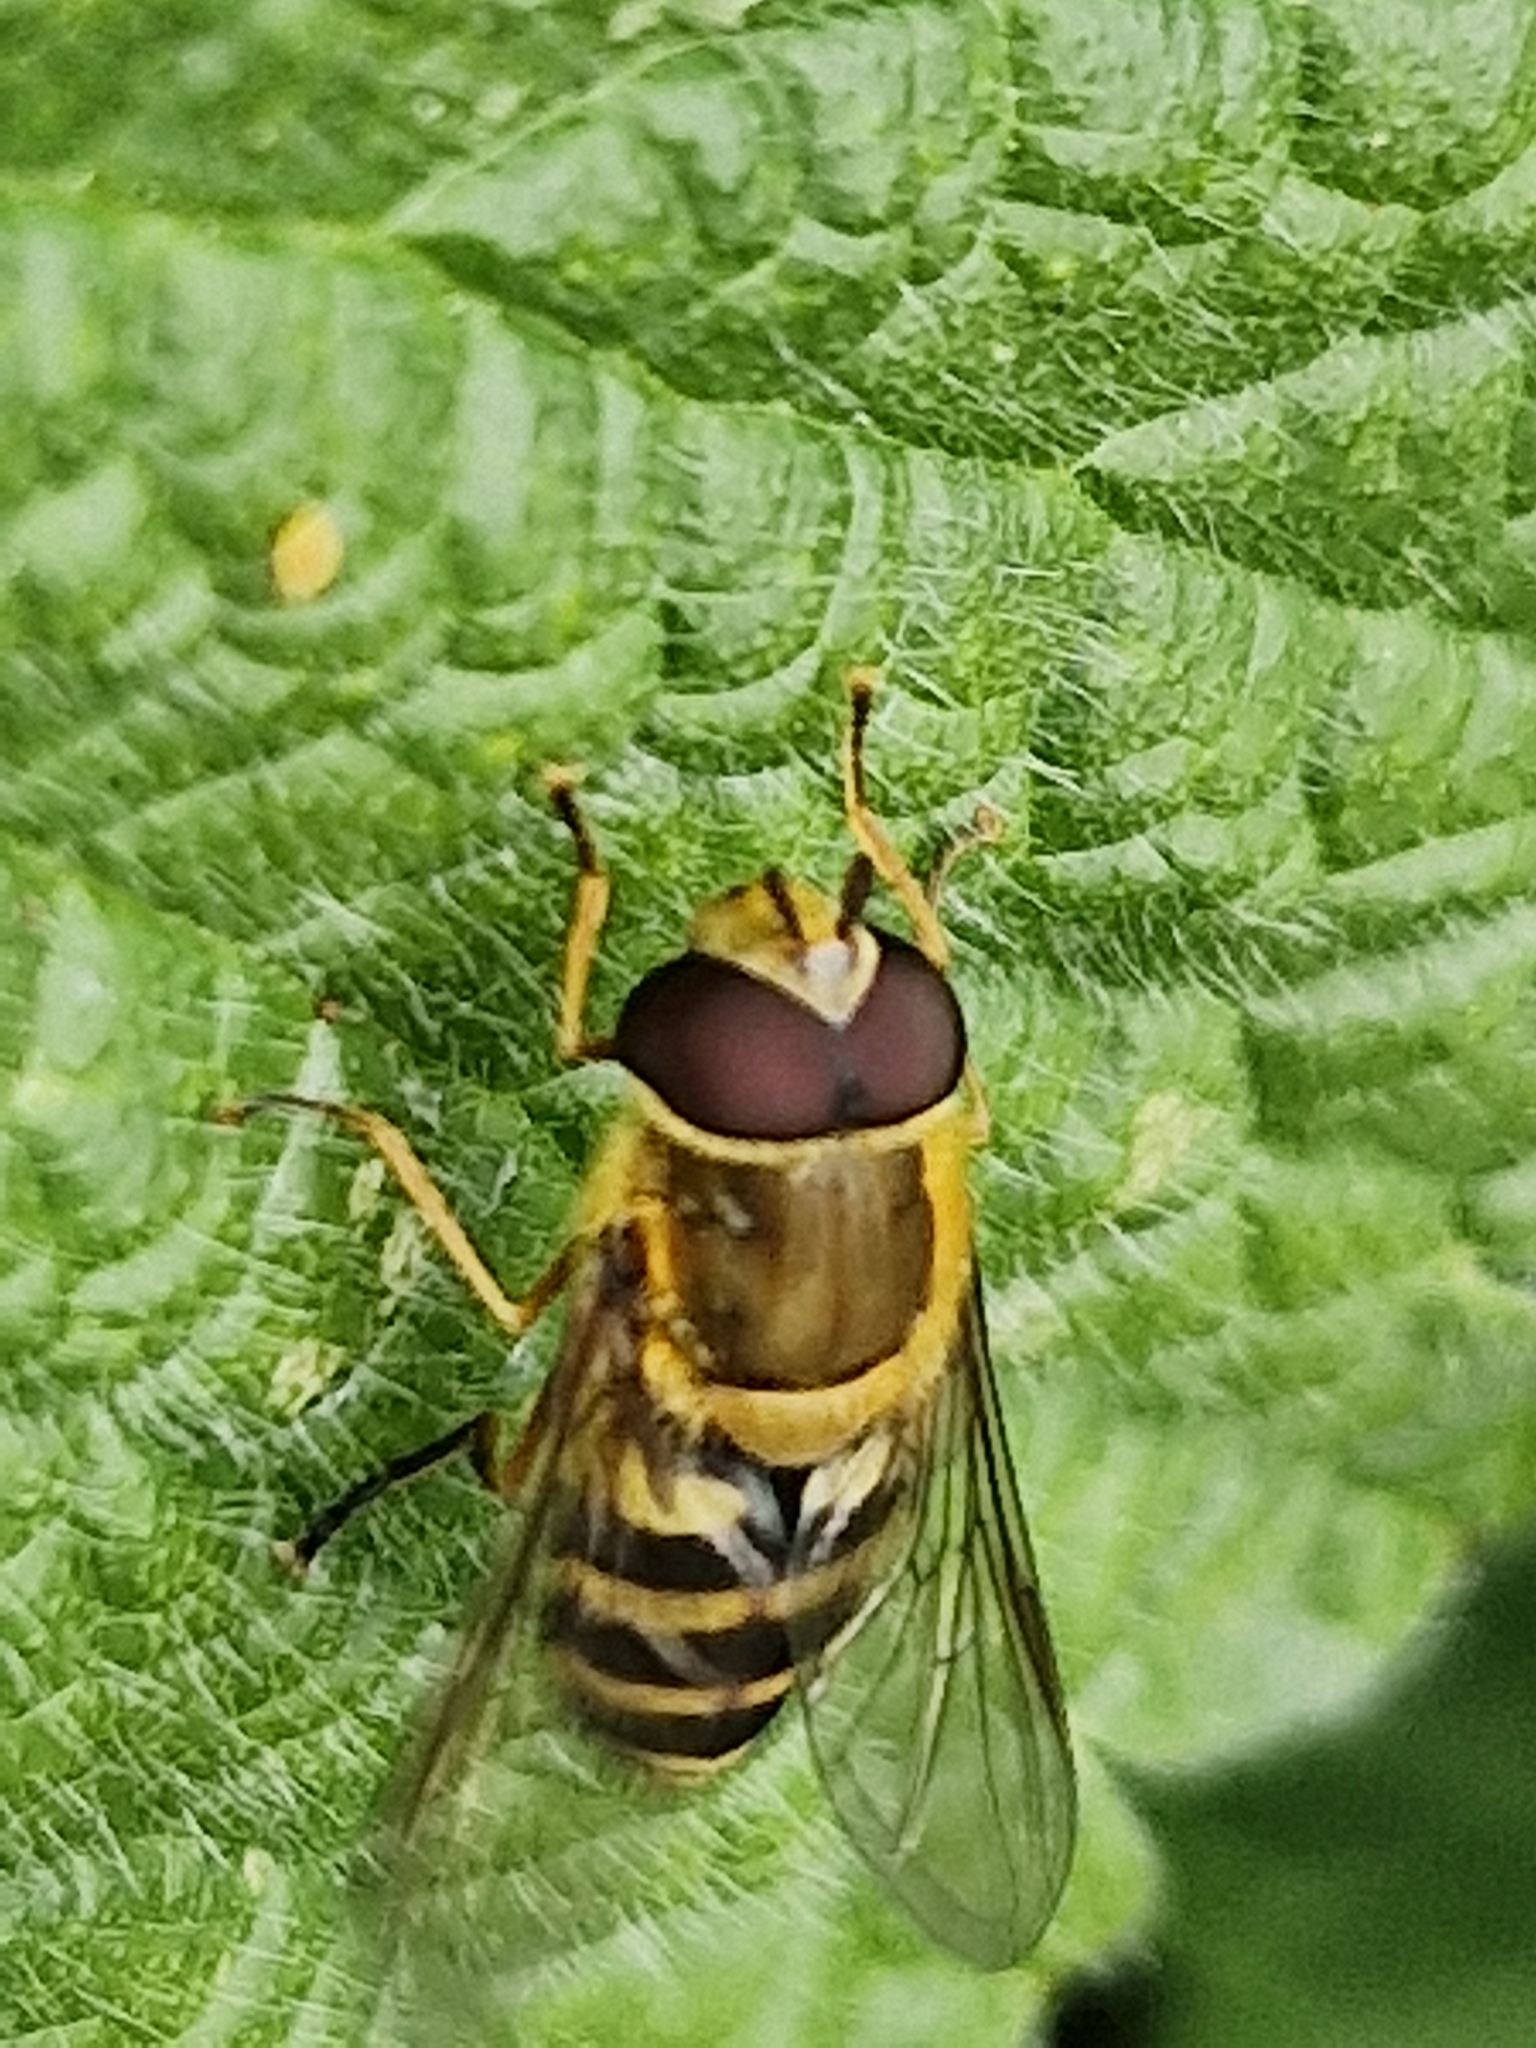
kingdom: Animalia
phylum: Arthropoda
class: Insecta
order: Diptera
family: Syrphidae
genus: Syrphus
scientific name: Syrphus
